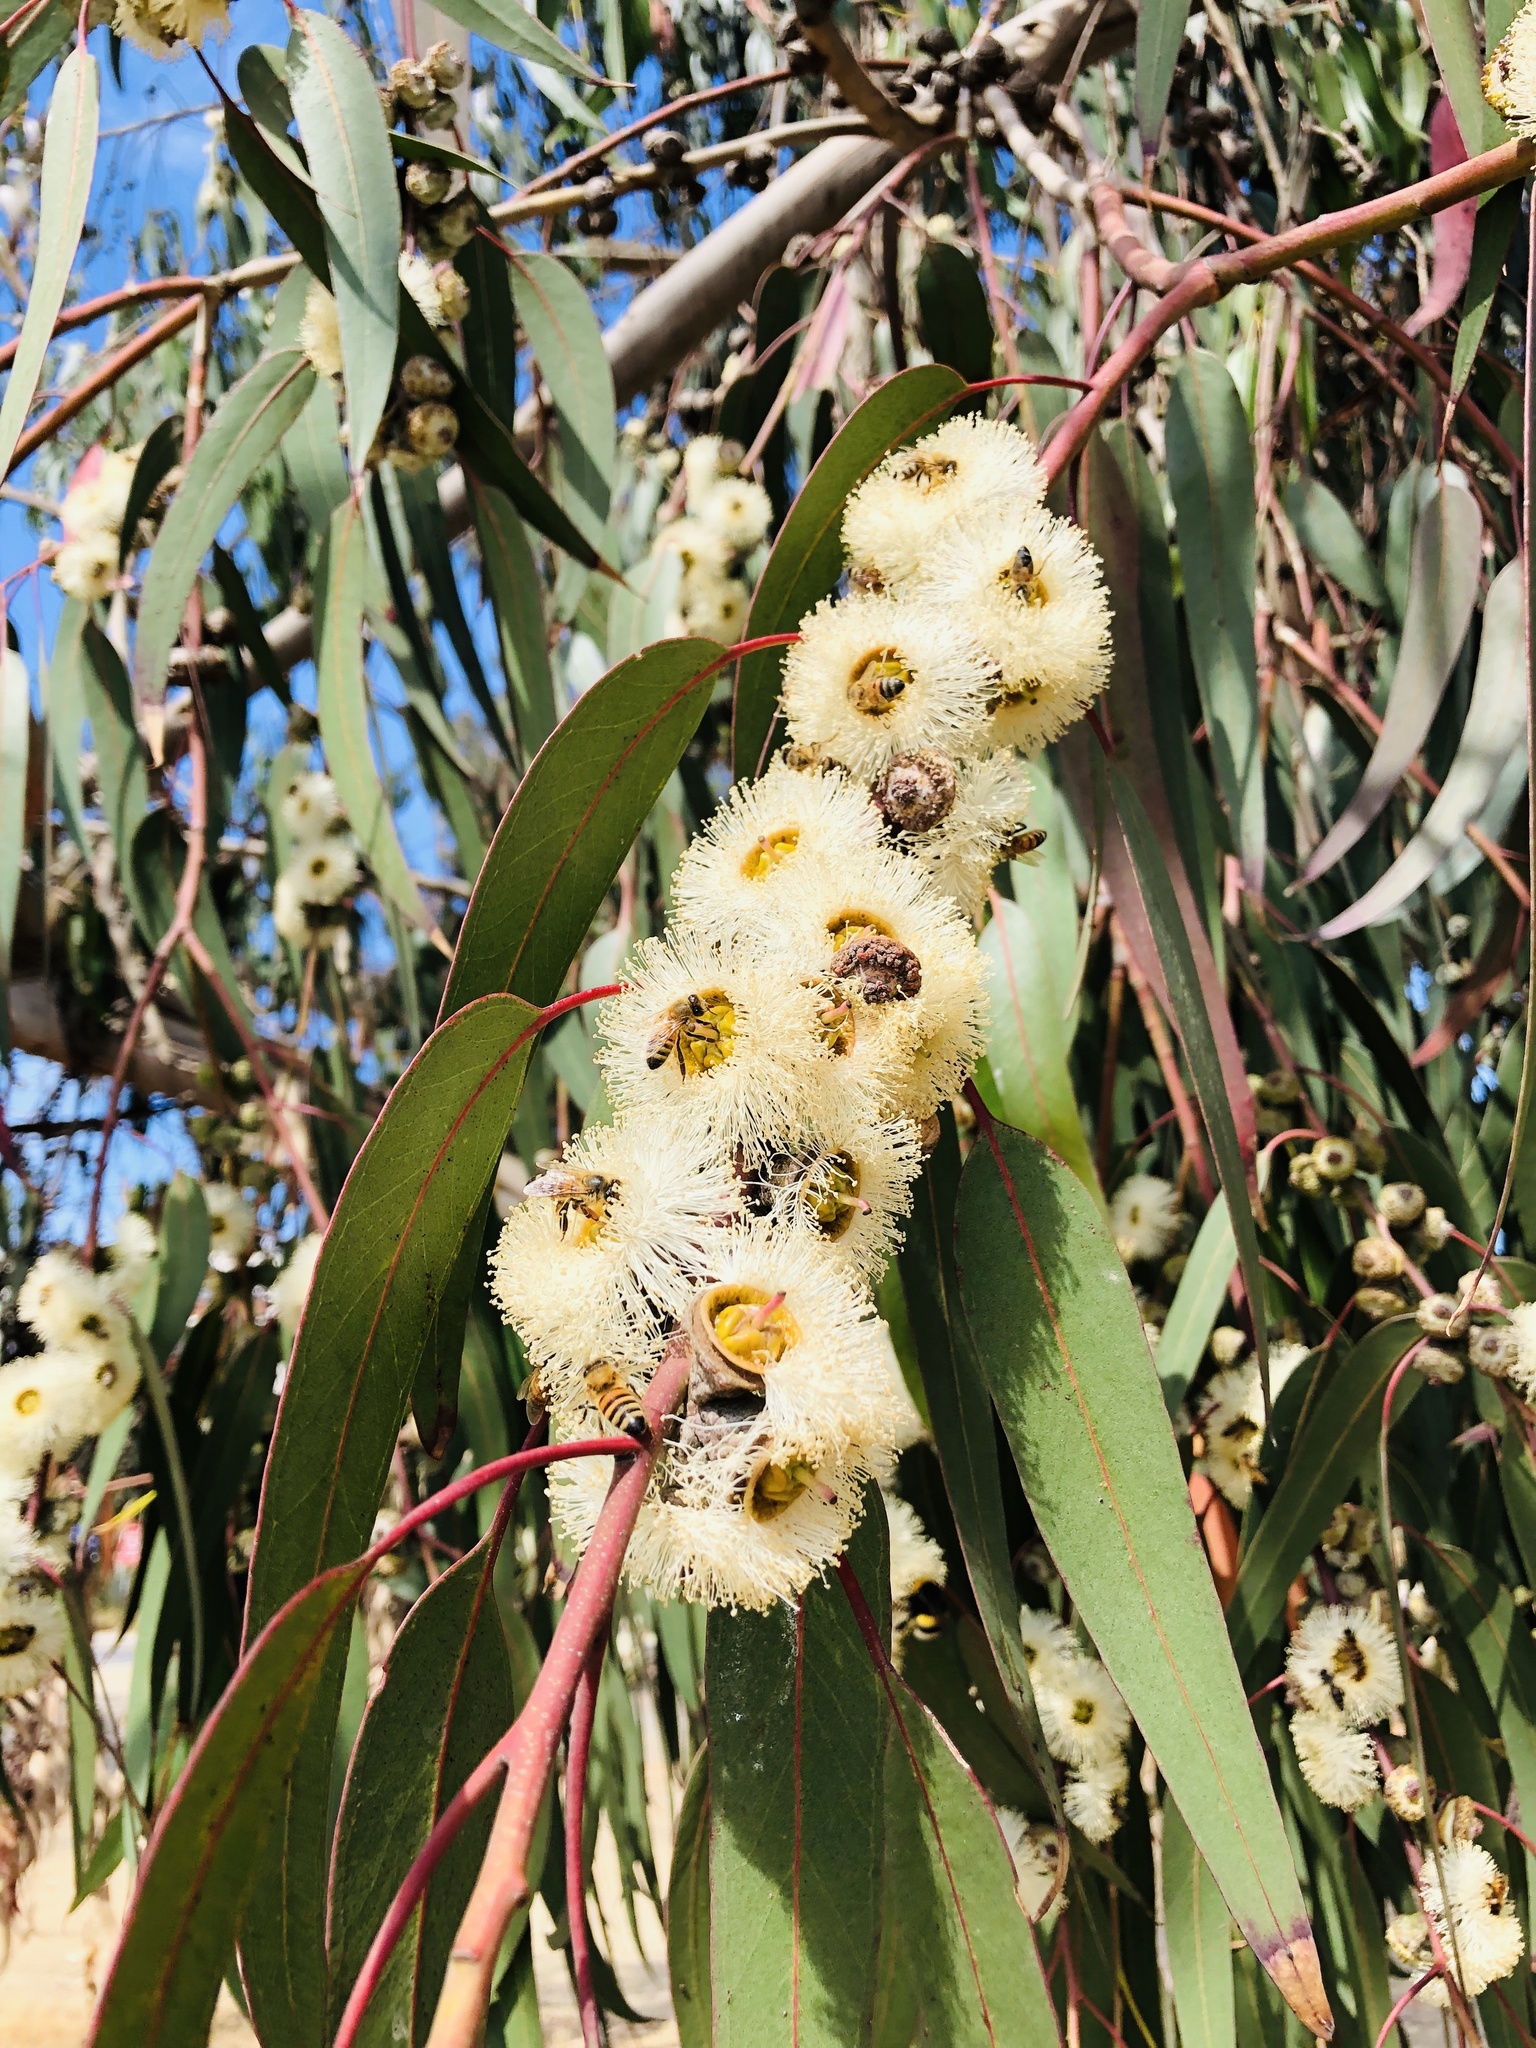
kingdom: Animalia
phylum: Arthropoda
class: Insecta
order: Hymenoptera
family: Apidae
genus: Apis
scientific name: Apis mellifera
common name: Honey bee
